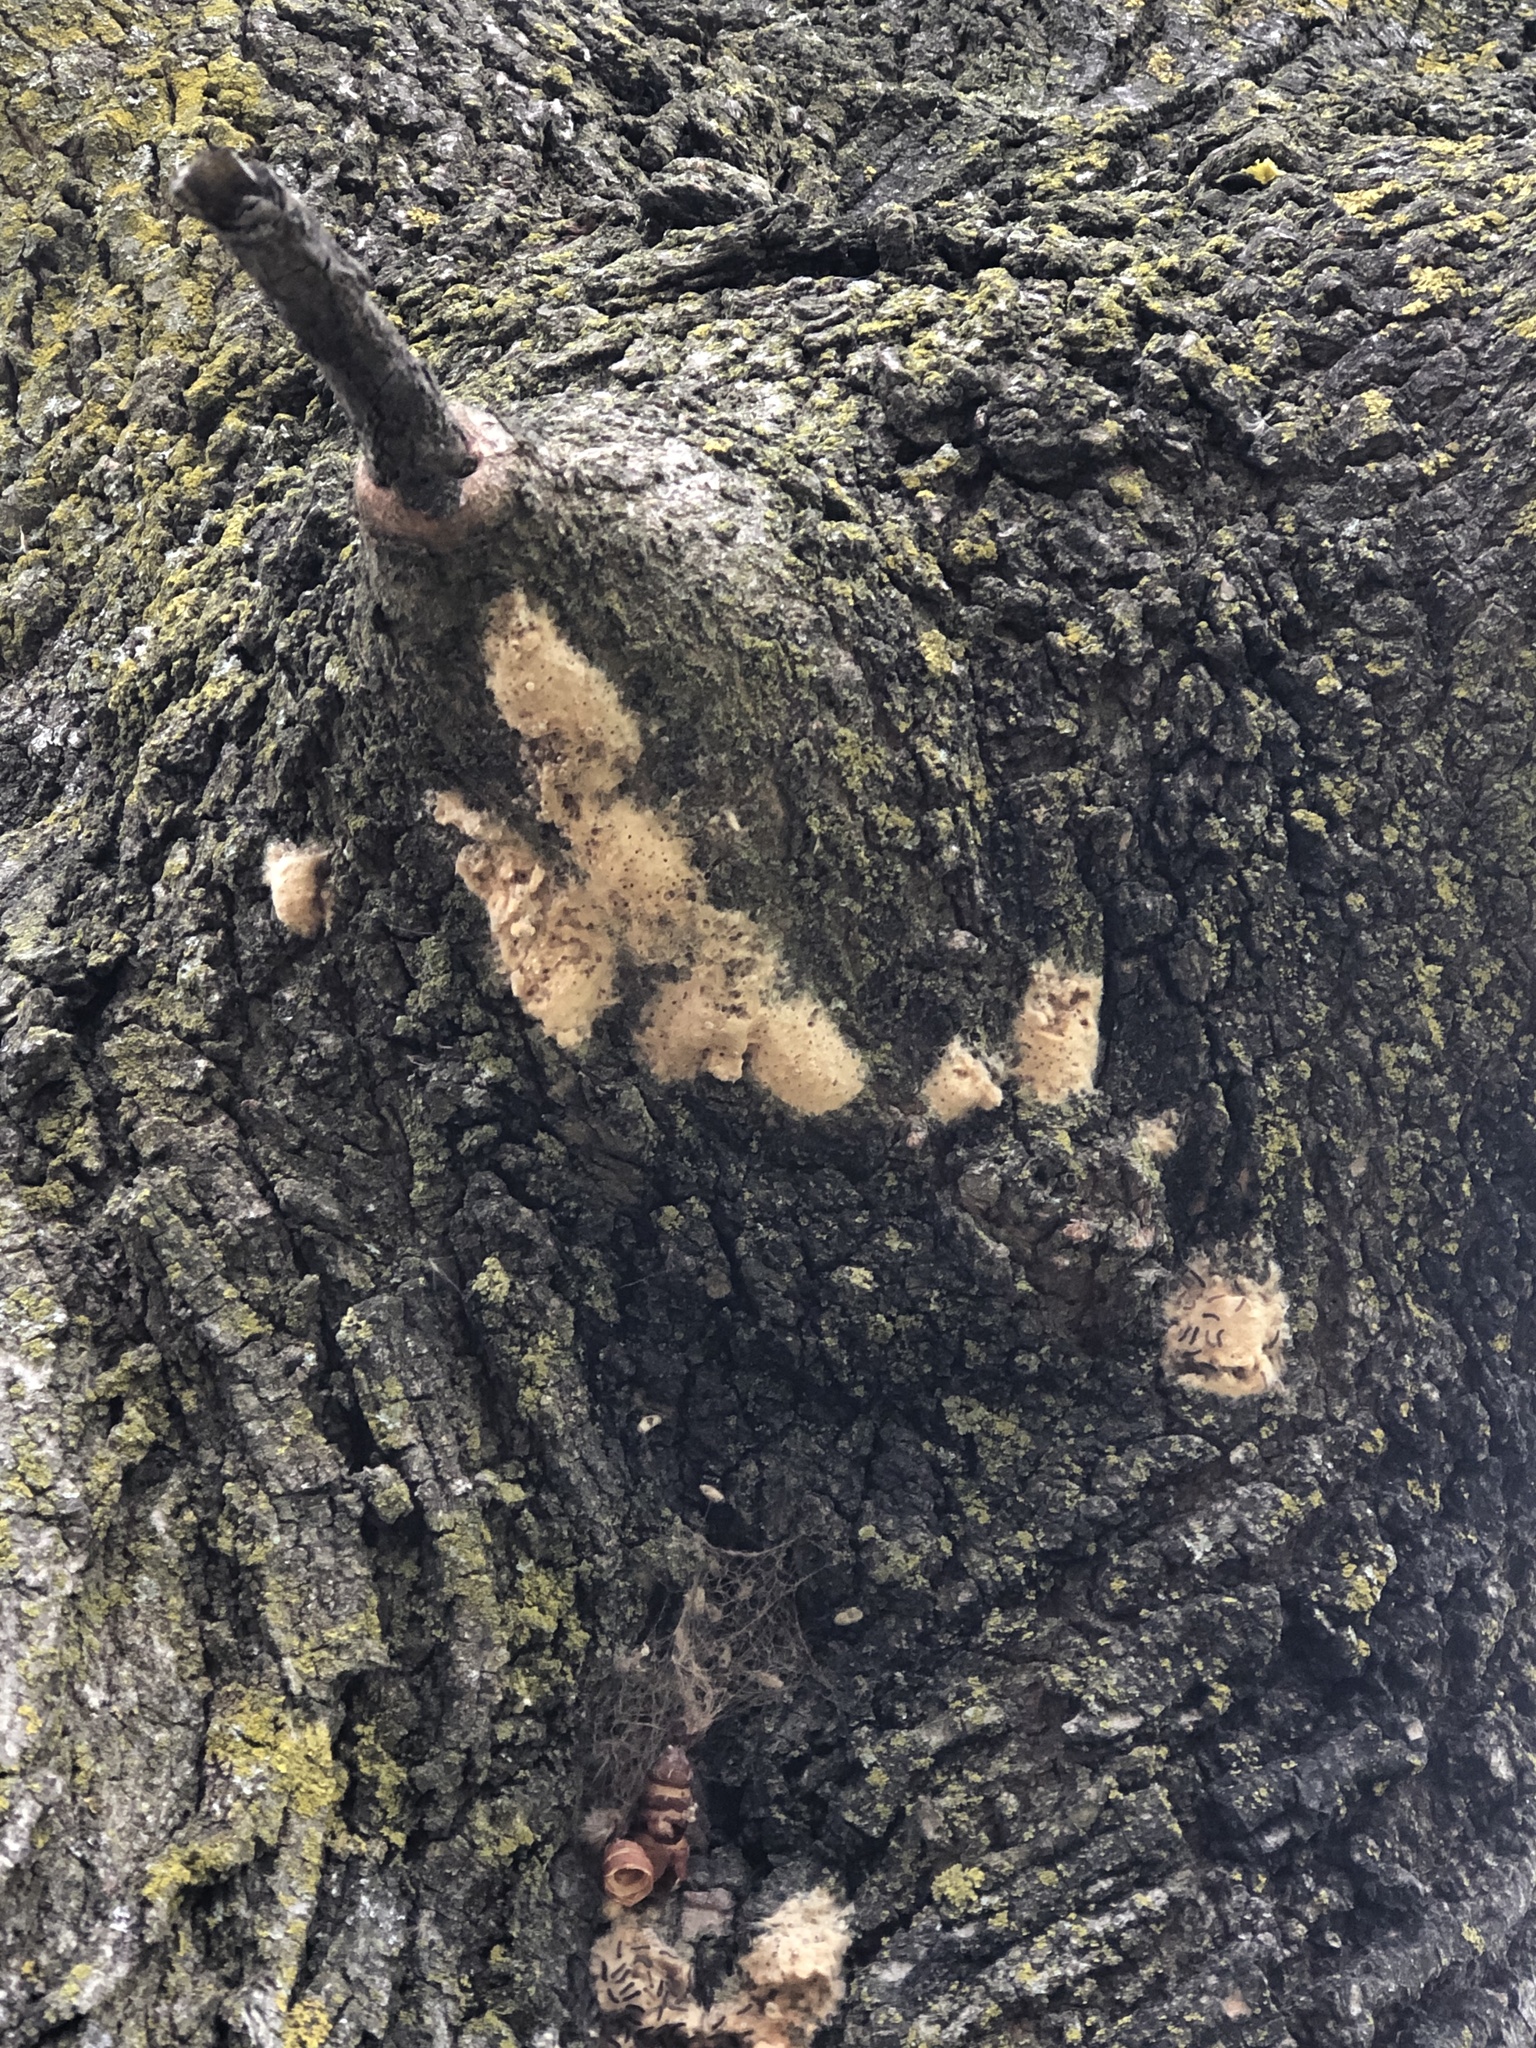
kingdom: Animalia
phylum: Arthropoda
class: Insecta
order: Lepidoptera
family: Erebidae
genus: Lymantria
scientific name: Lymantria dispar
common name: Gypsy moth
